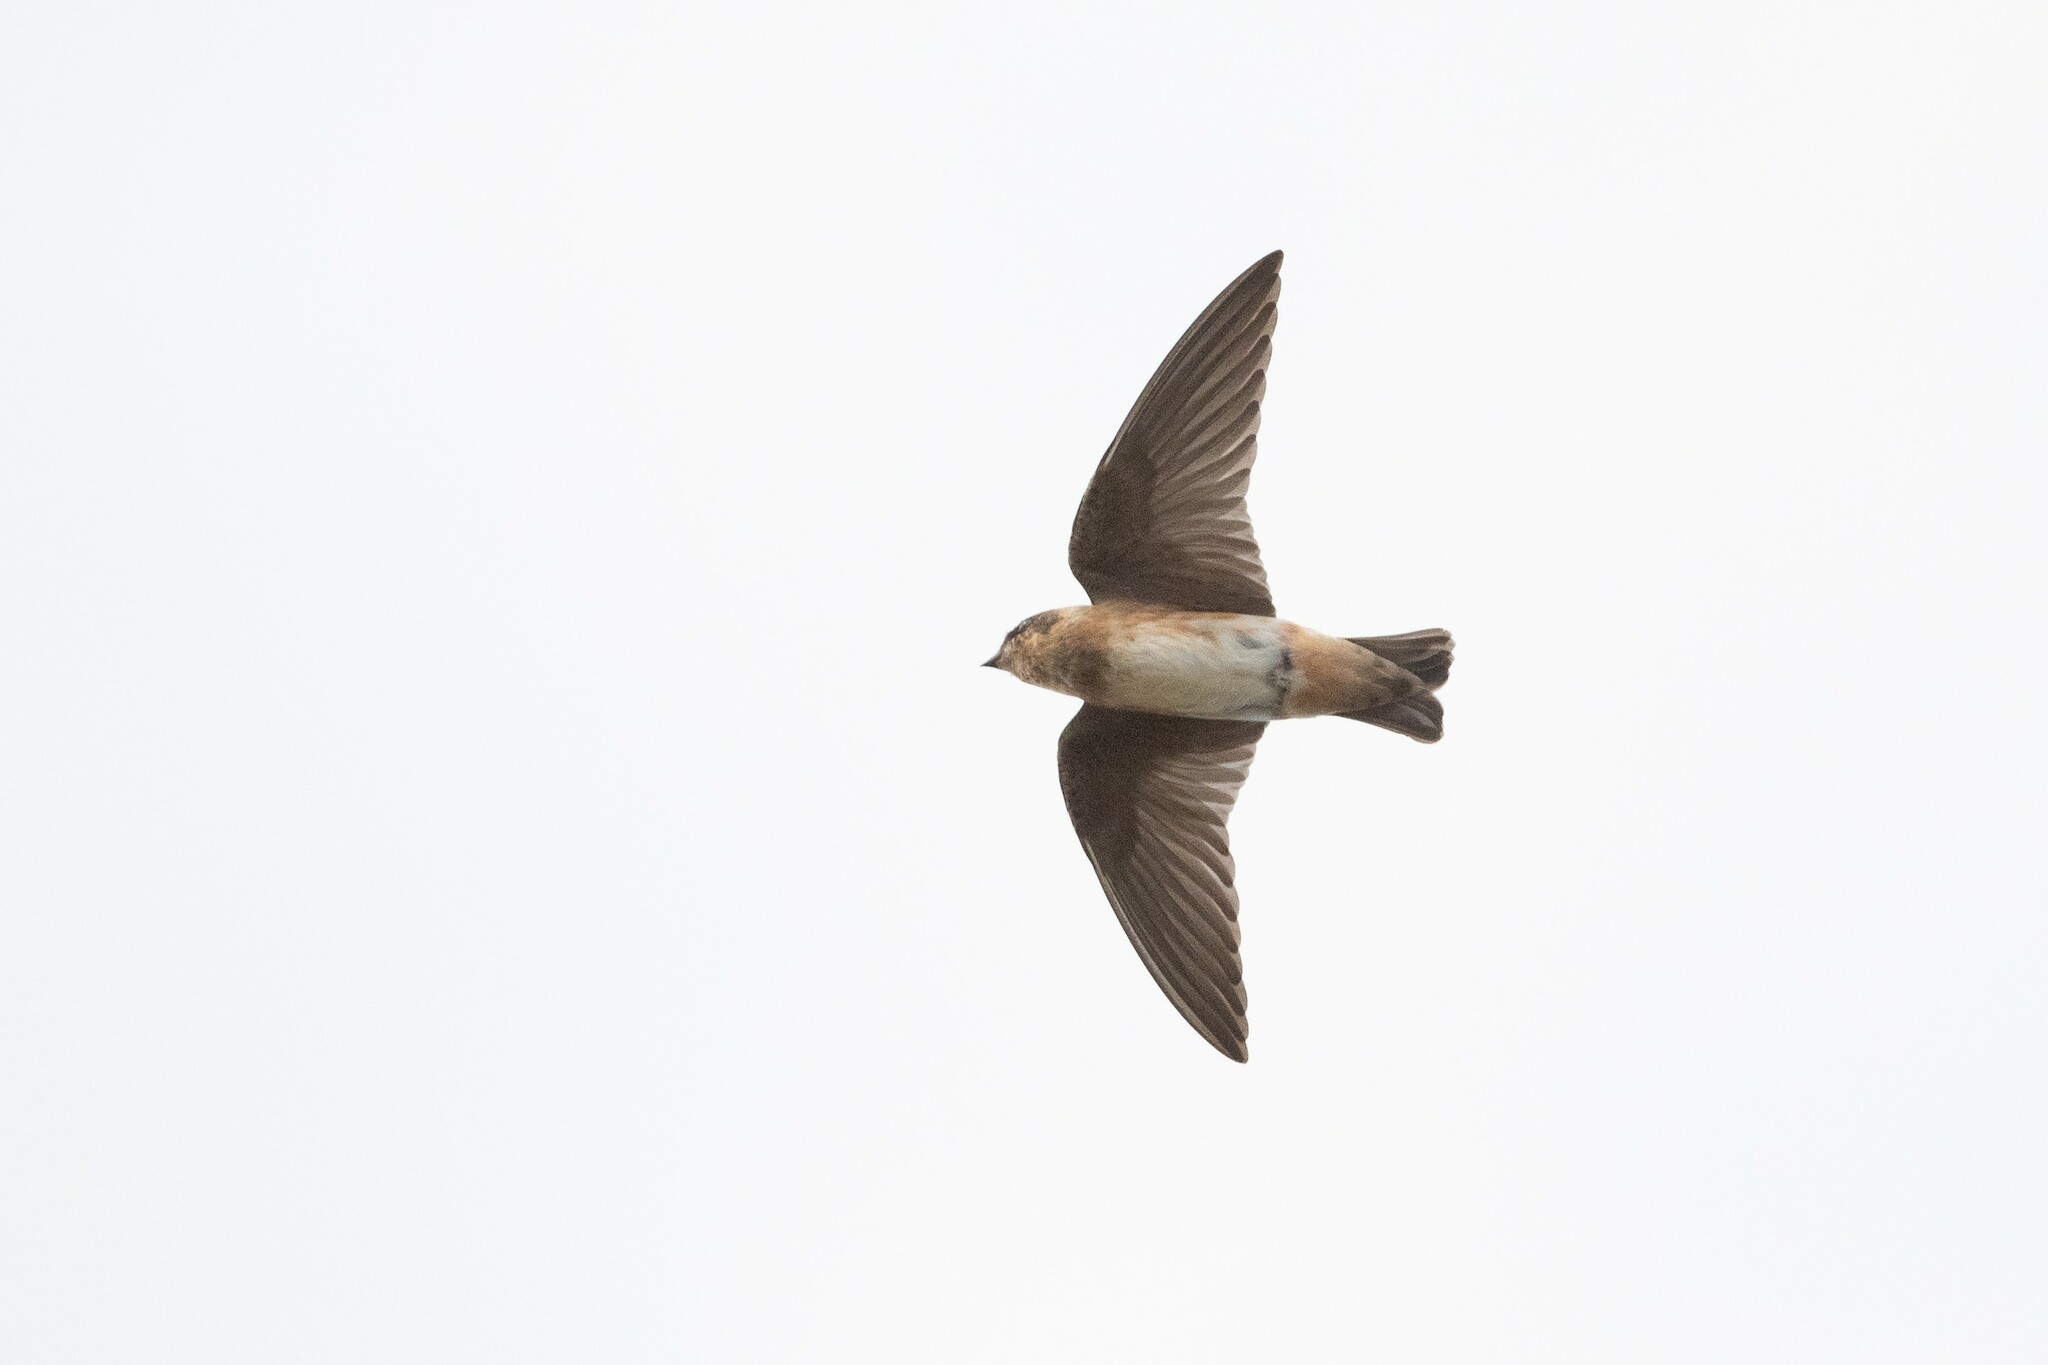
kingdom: Animalia
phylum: Chordata
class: Aves
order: Passeriformes
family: Hirundinidae
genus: Petrochelidon
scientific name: Petrochelidon fulva
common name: Cave swallow
